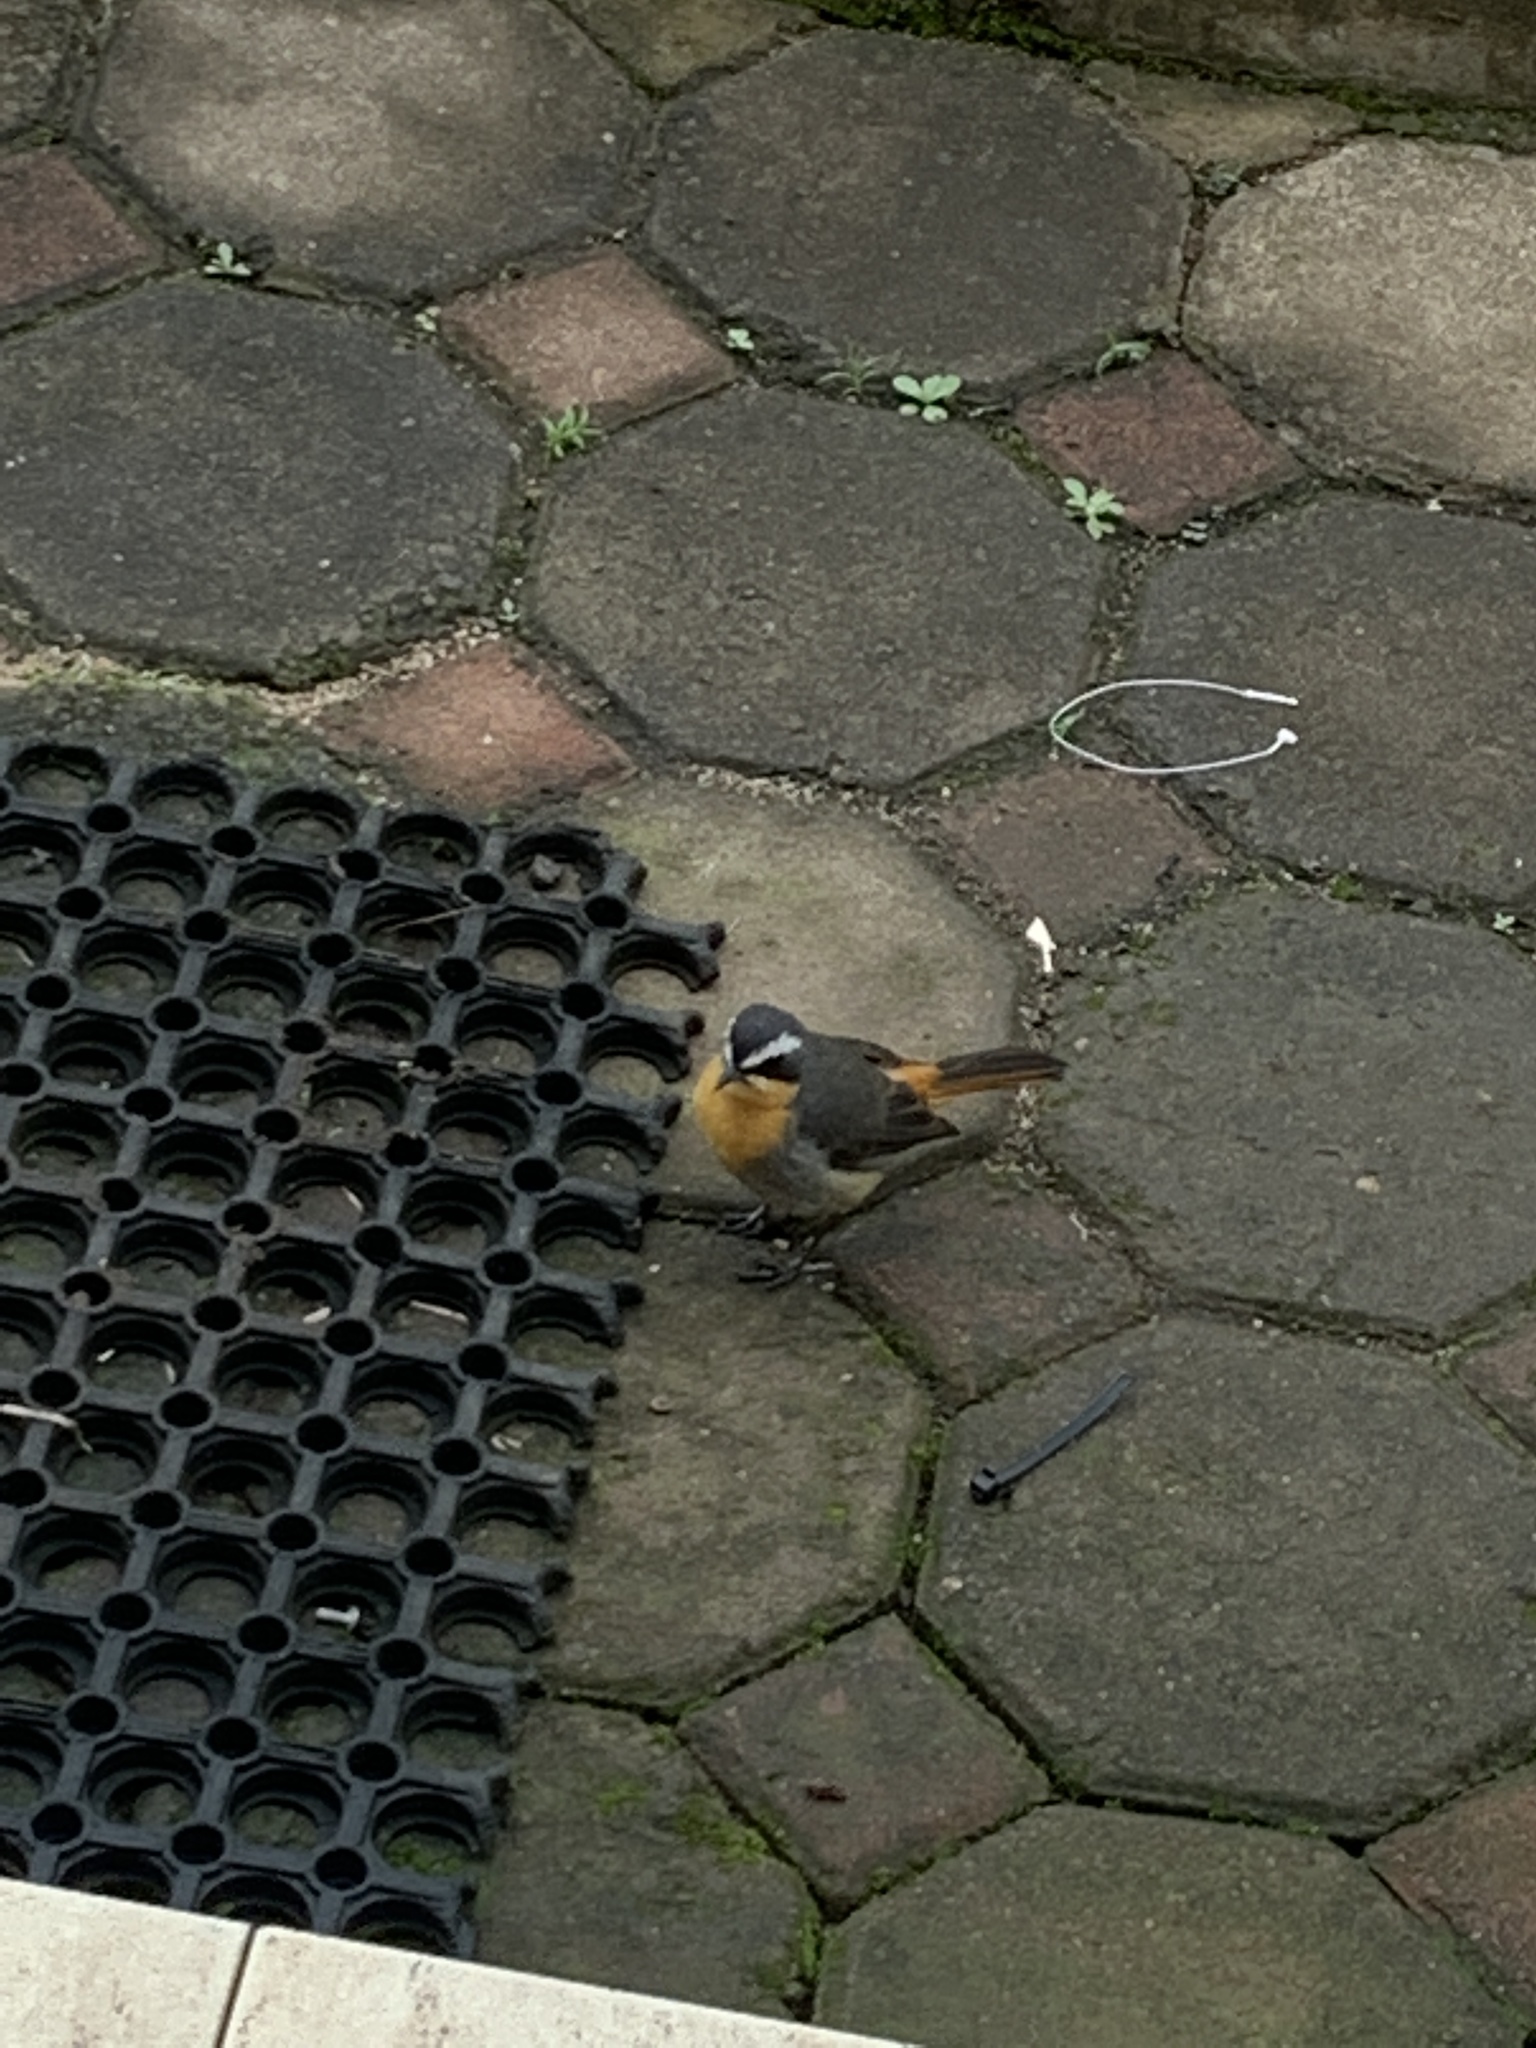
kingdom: Animalia
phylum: Chordata
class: Aves
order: Passeriformes
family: Muscicapidae
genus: Cossypha
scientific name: Cossypha caffra
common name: Cape robin-chat
